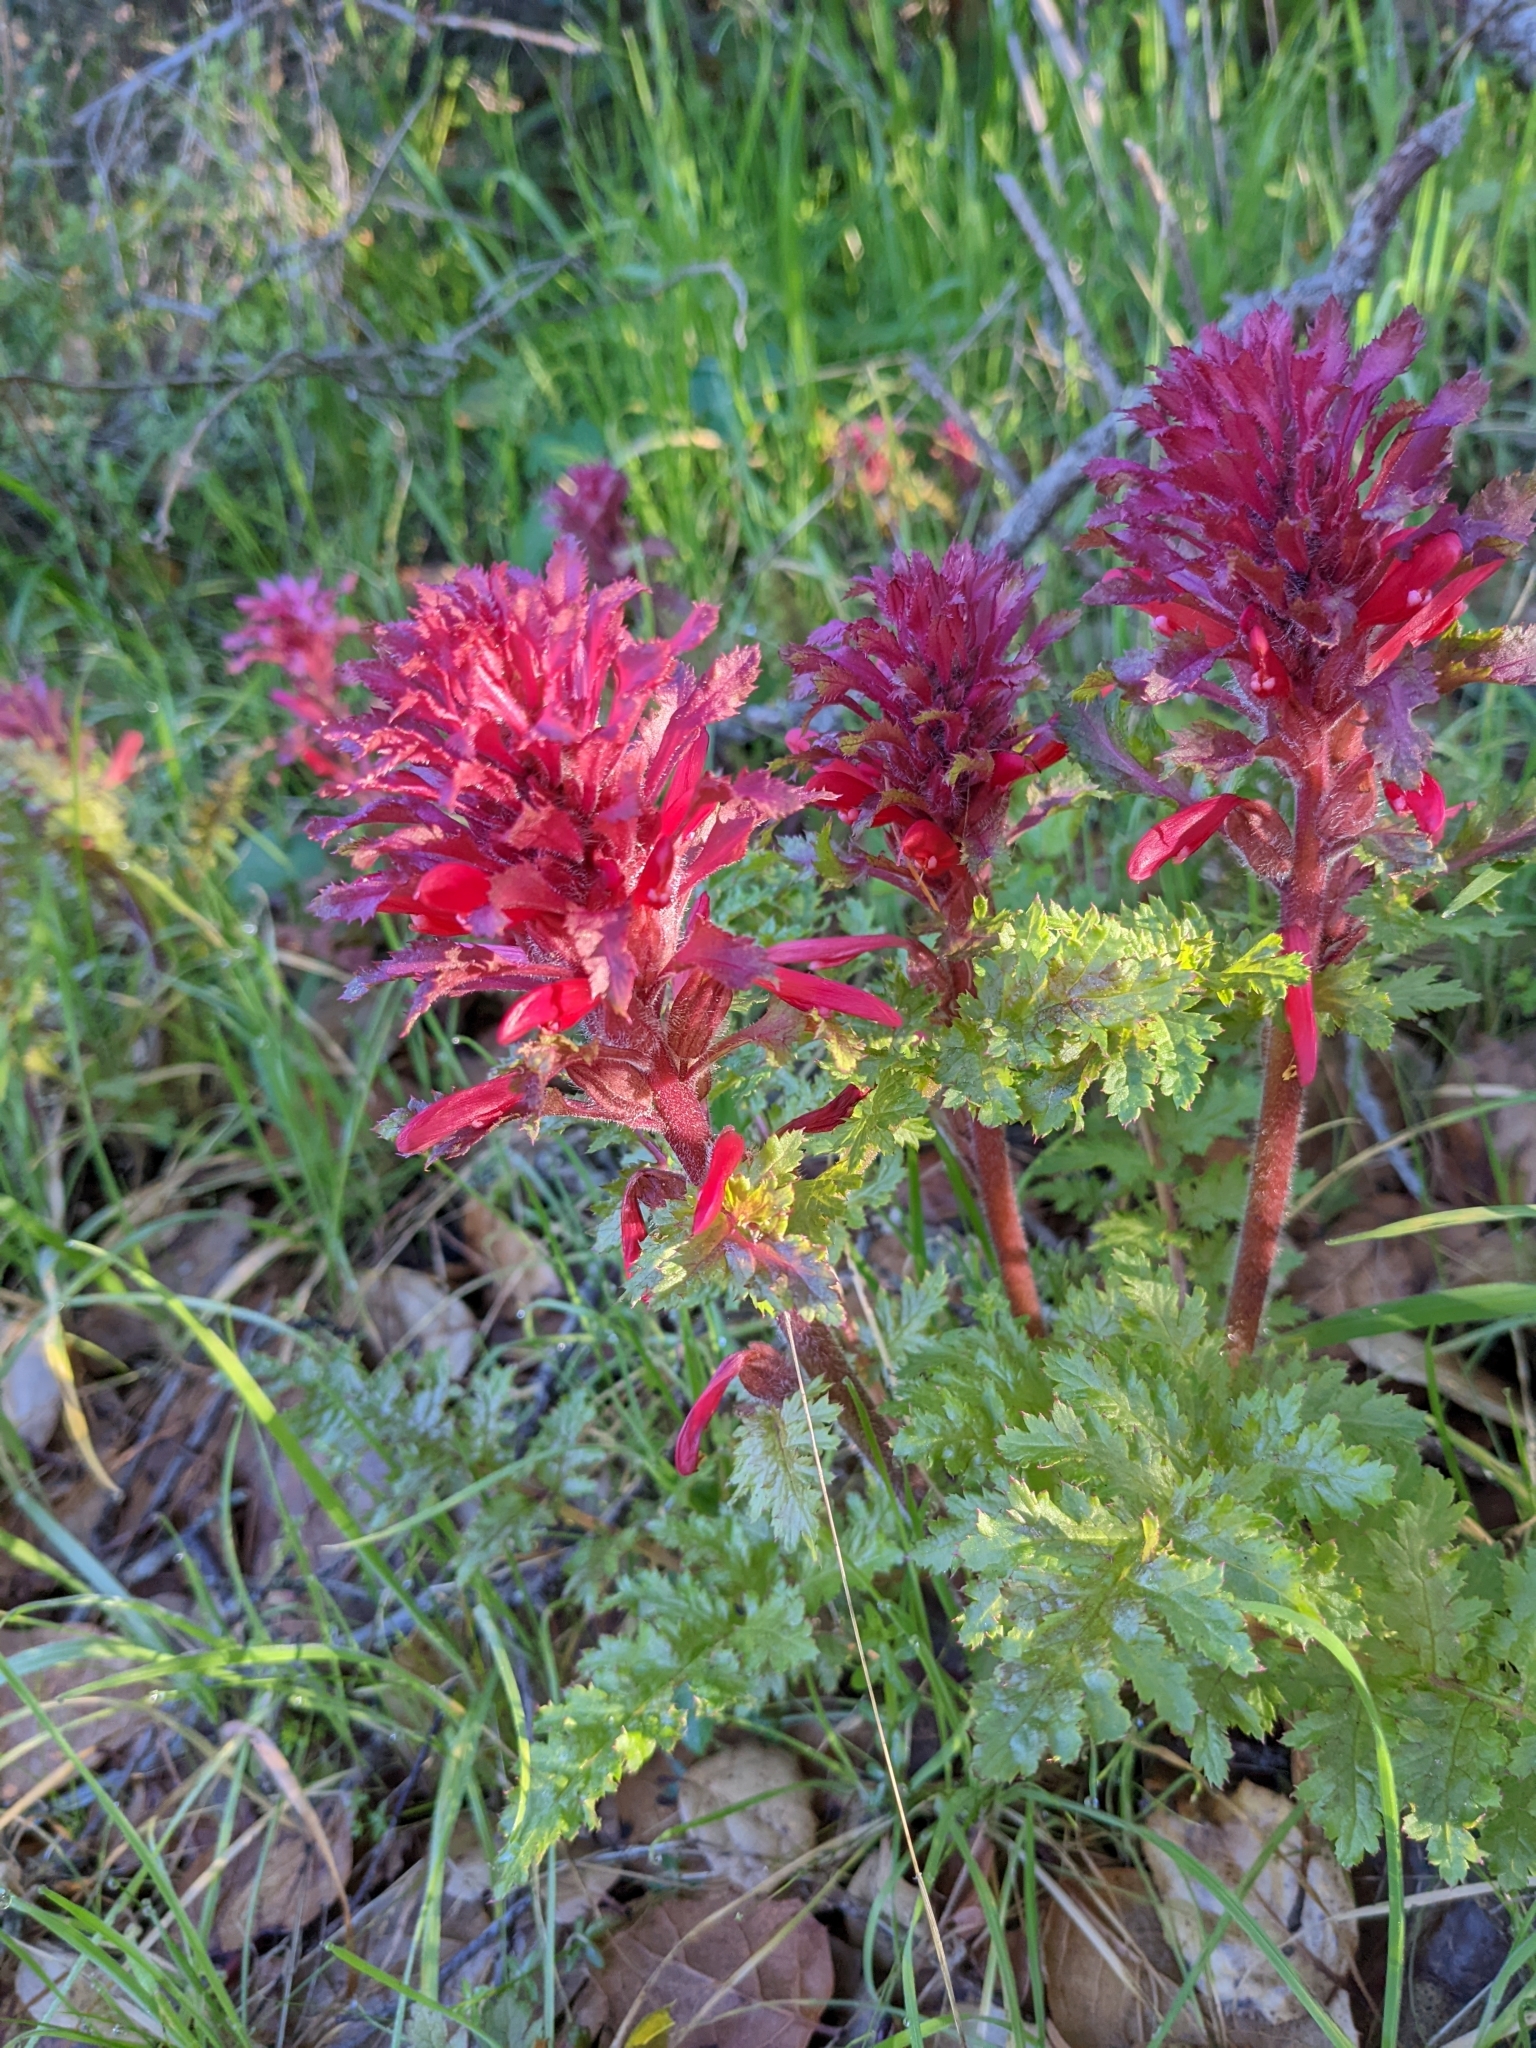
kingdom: Plantae
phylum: Tracheophyta
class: Magnoliopsida
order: Lamiales
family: Orobanchaceae
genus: Pedicularis
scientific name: Pedicularis densiflora
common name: Indian warrior
